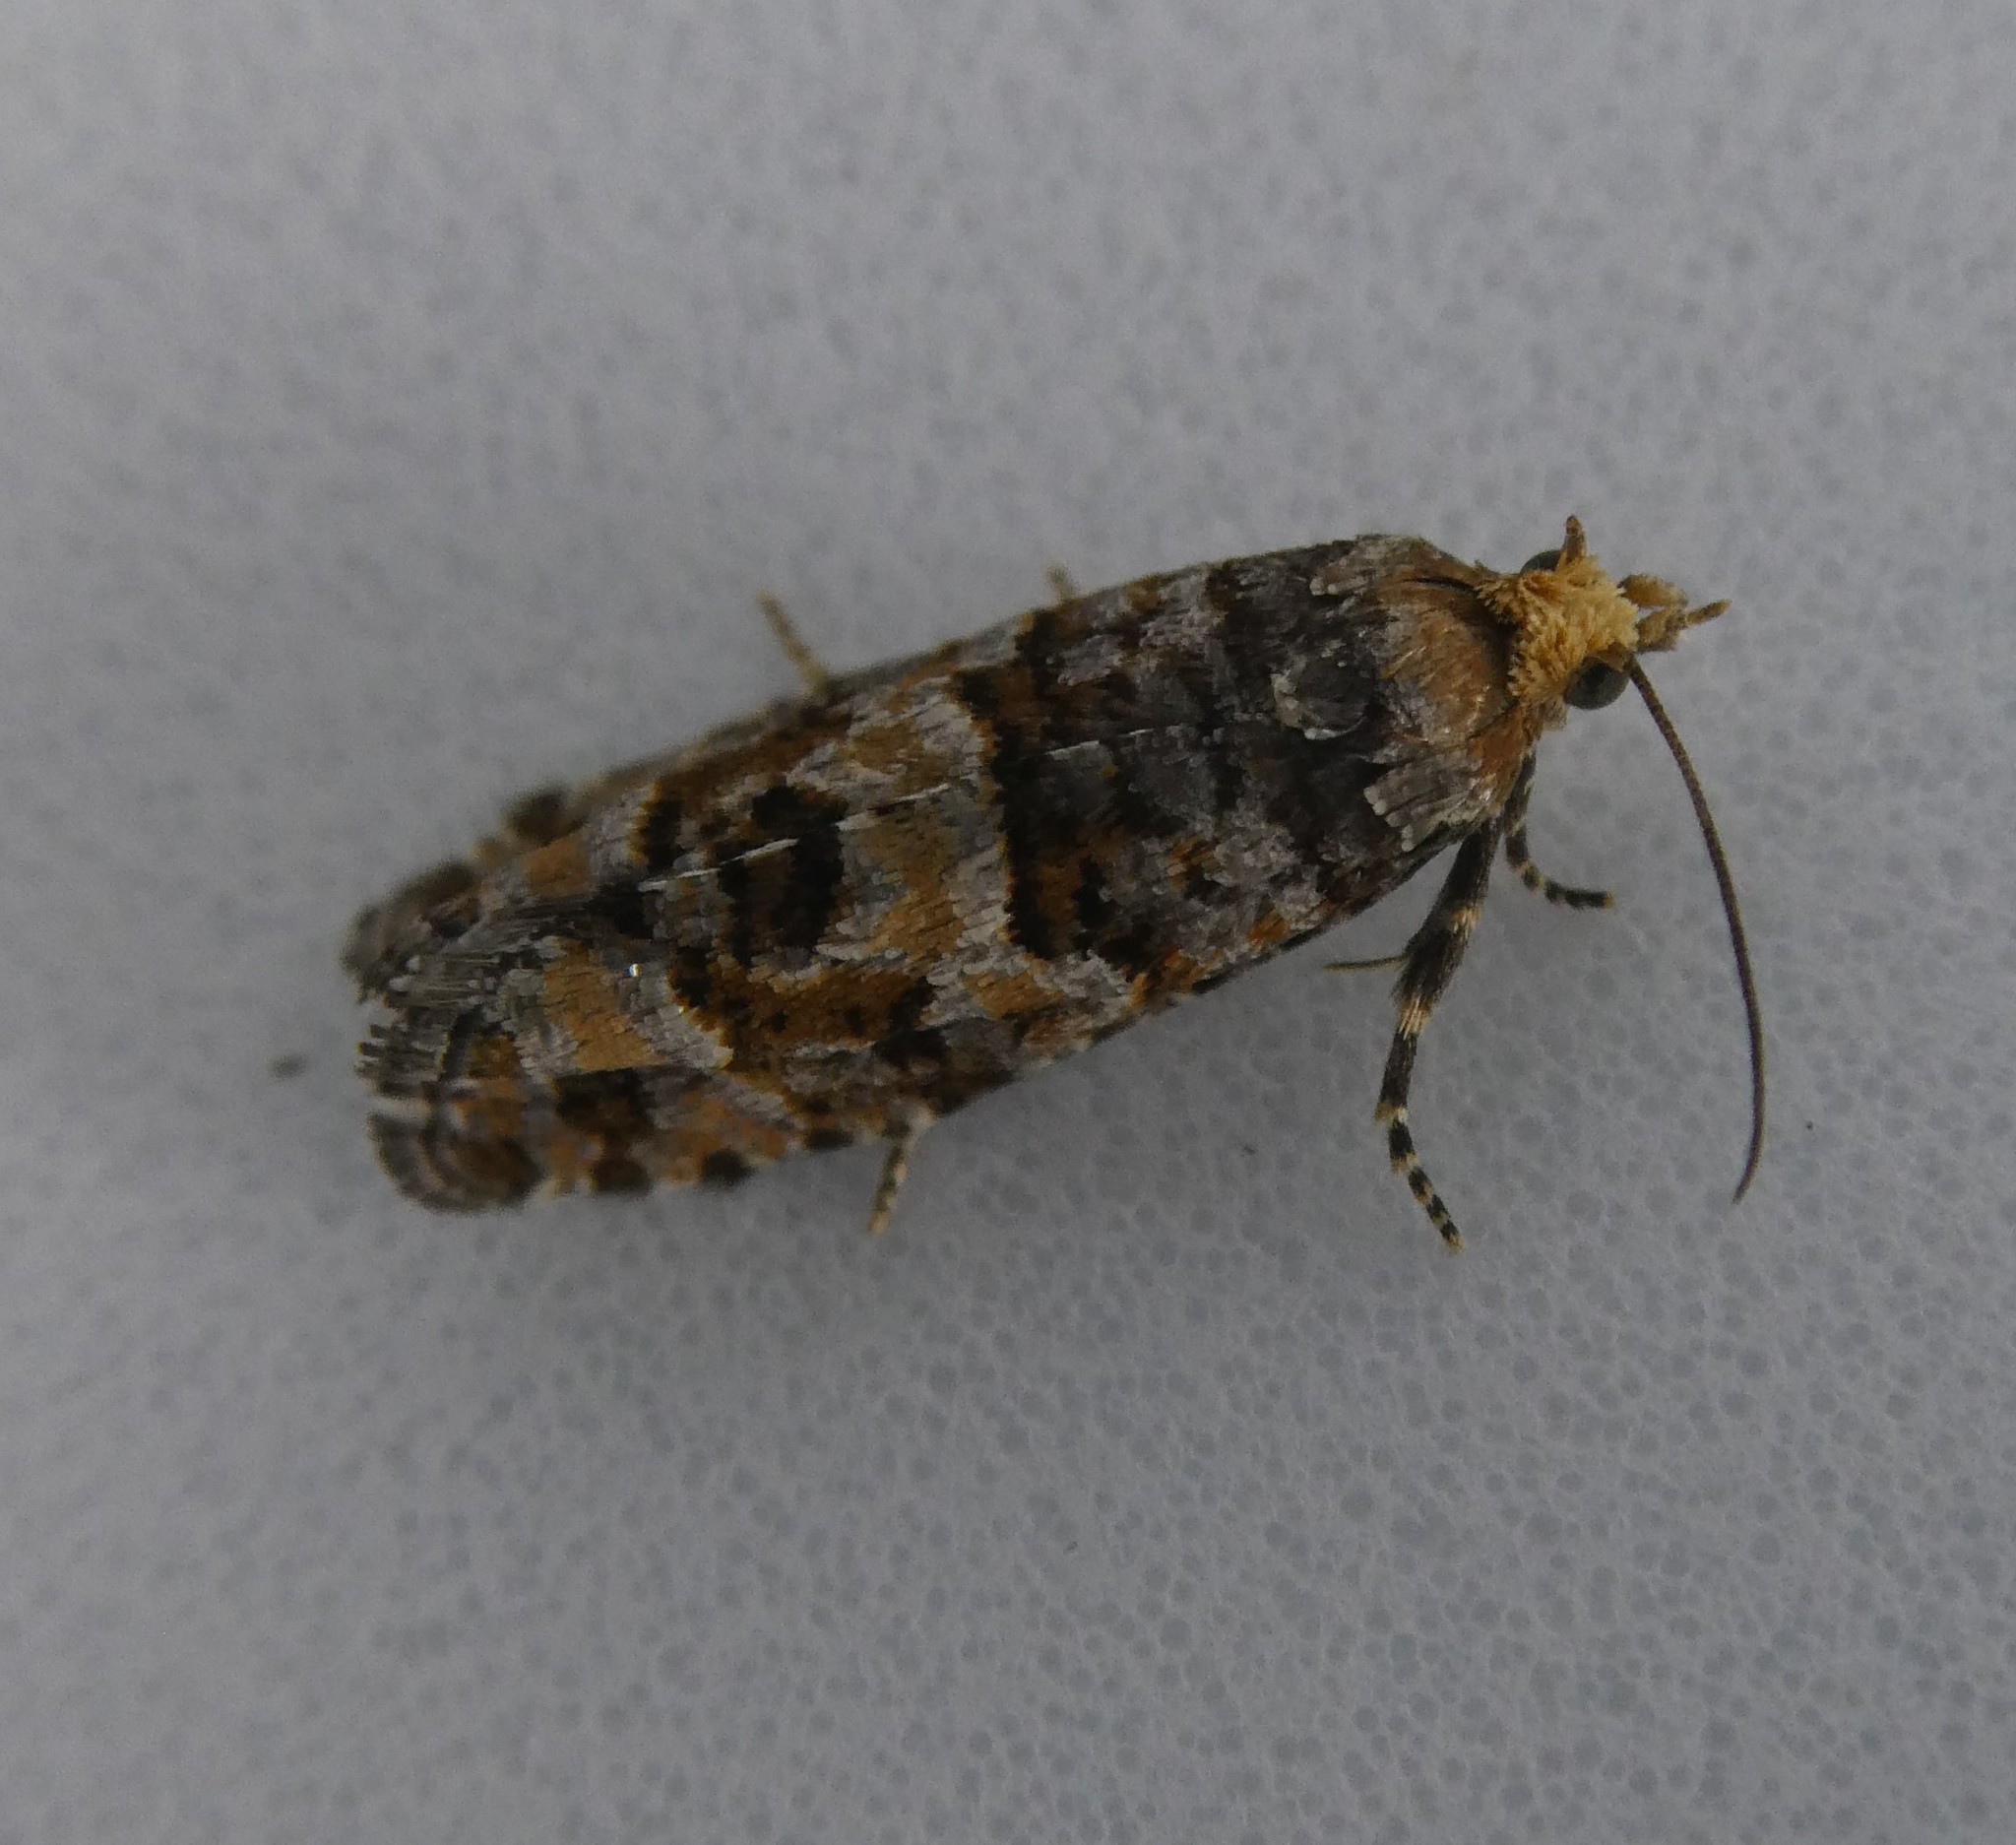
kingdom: Animalia
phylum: Arthropoda
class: Insecta
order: Lepidoptera
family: Tortricidae
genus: Eucopina
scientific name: Eucopina tocullionana
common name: White pinecone borer moth
